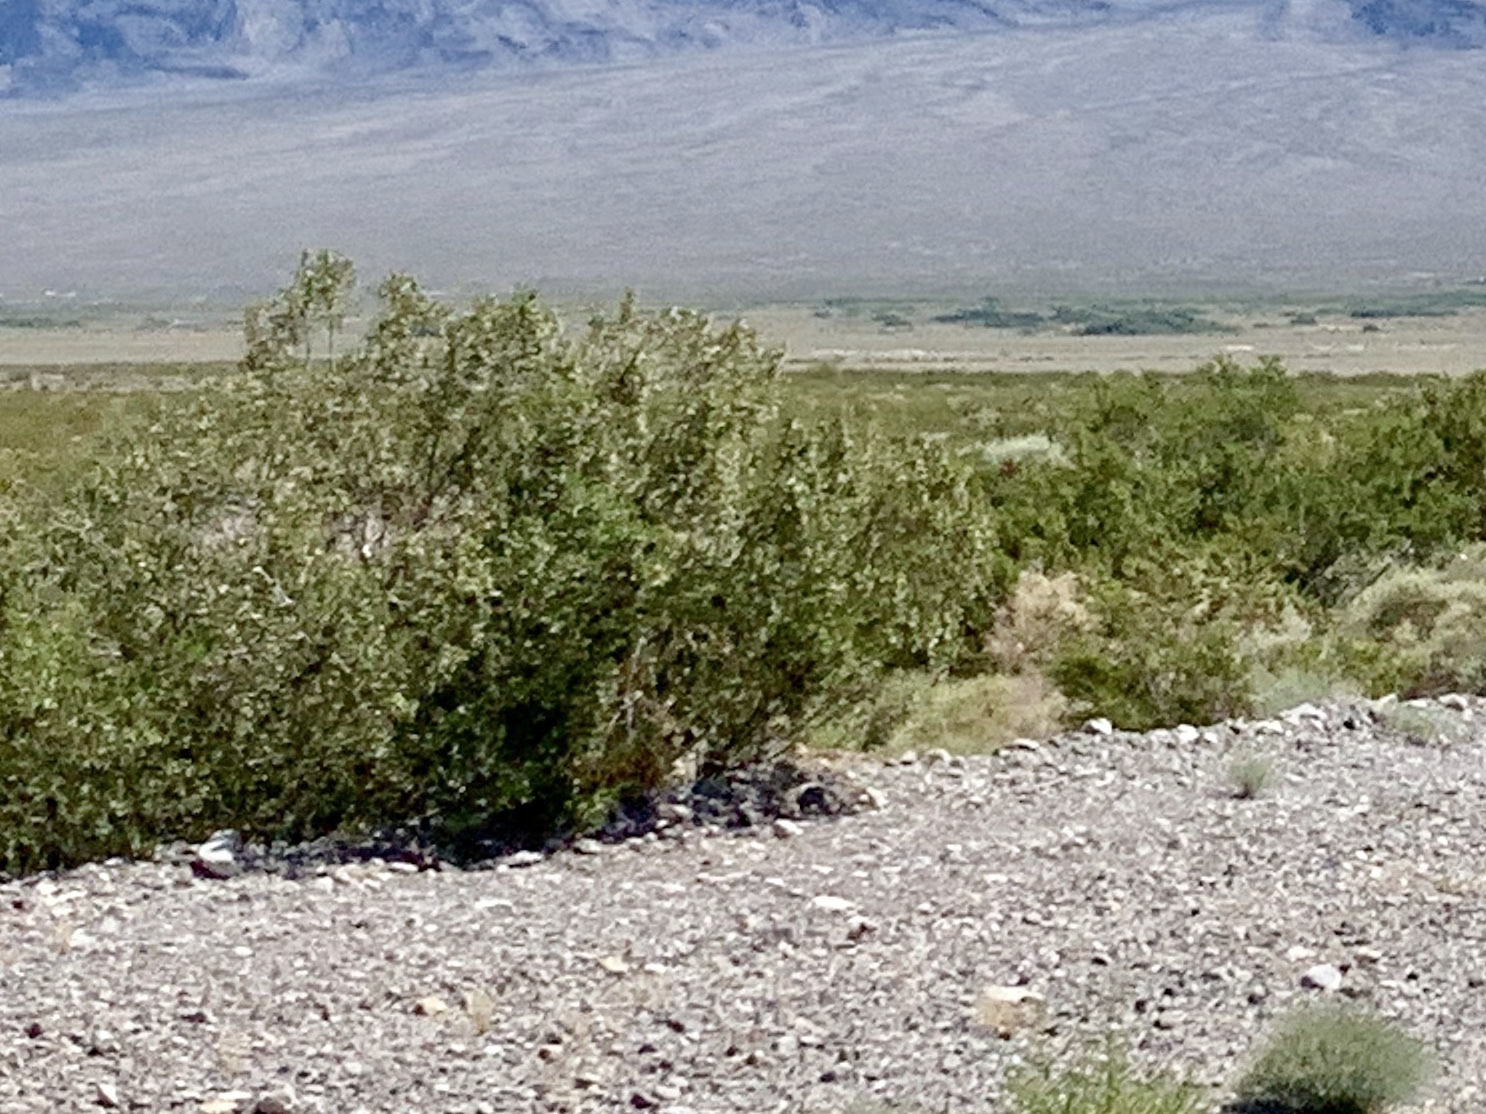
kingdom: Plantae
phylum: Tracheophyta
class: Magnoliopsida
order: Zygophyllales
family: Zygophyllaceae
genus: Larrea
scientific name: Larrea tridentata
